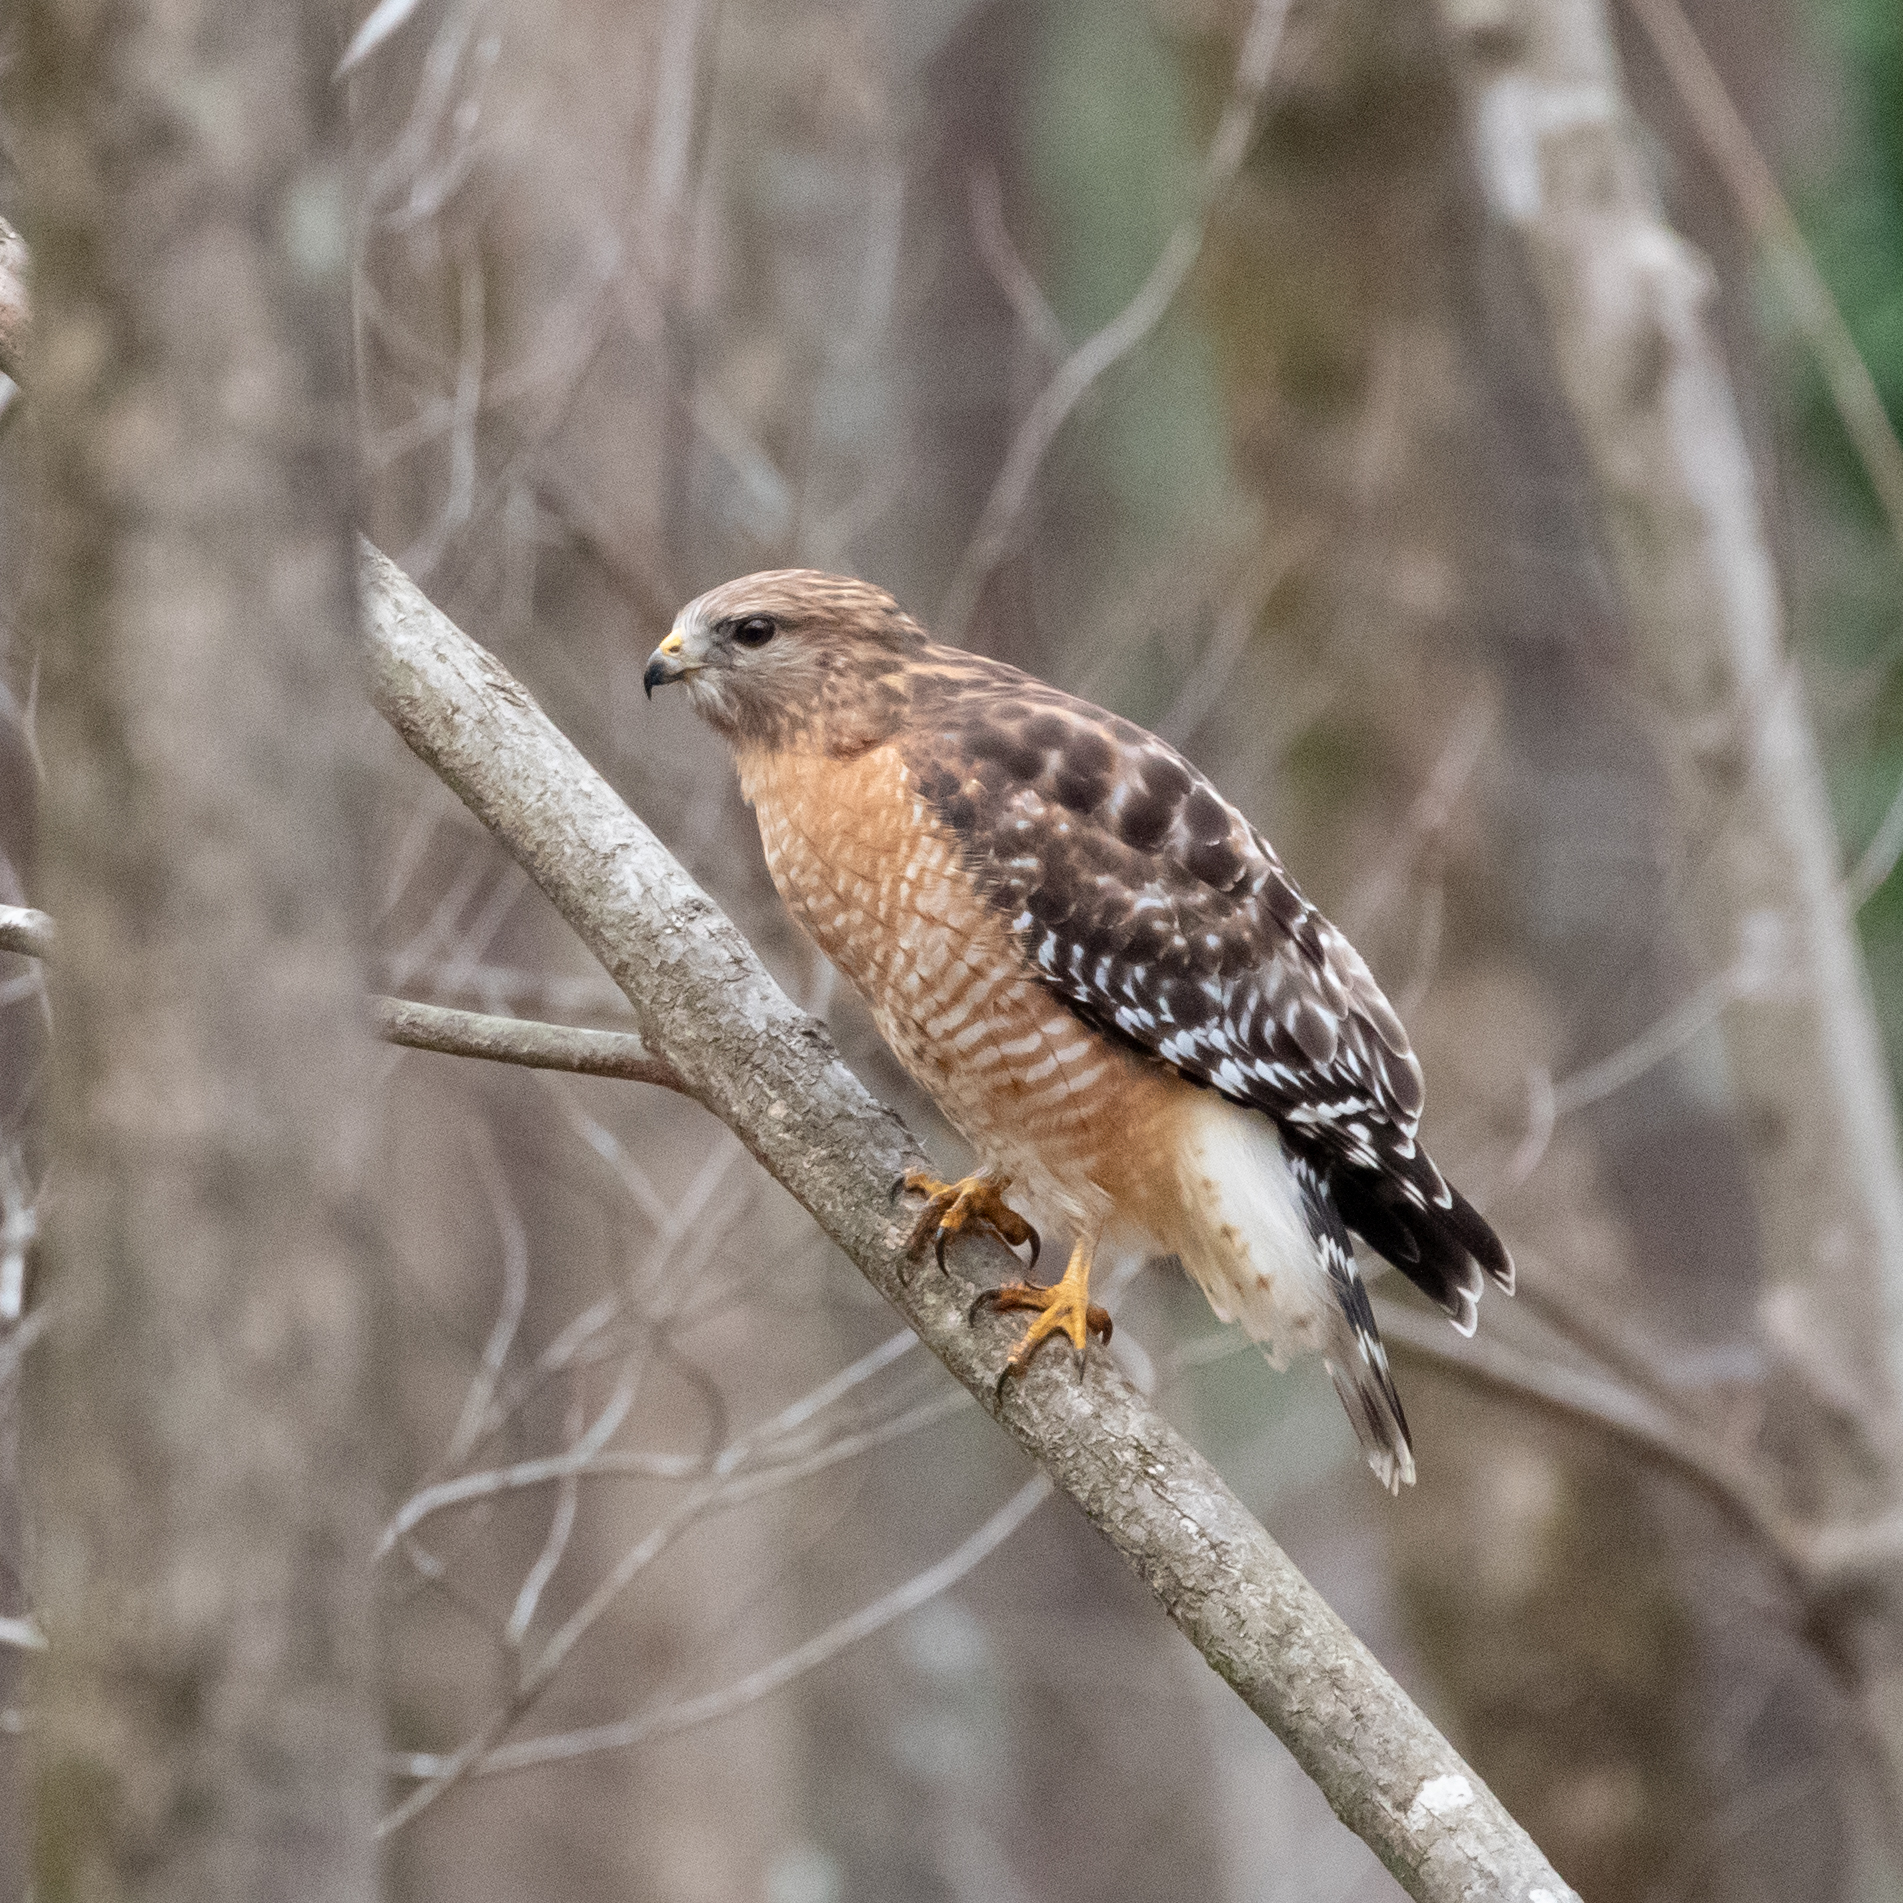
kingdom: Animalia
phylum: Chordata
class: Aves
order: Accipitriformes
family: Accipitridae
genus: Buteo
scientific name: Buteo lineatus
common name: Red-shouldered hawk
